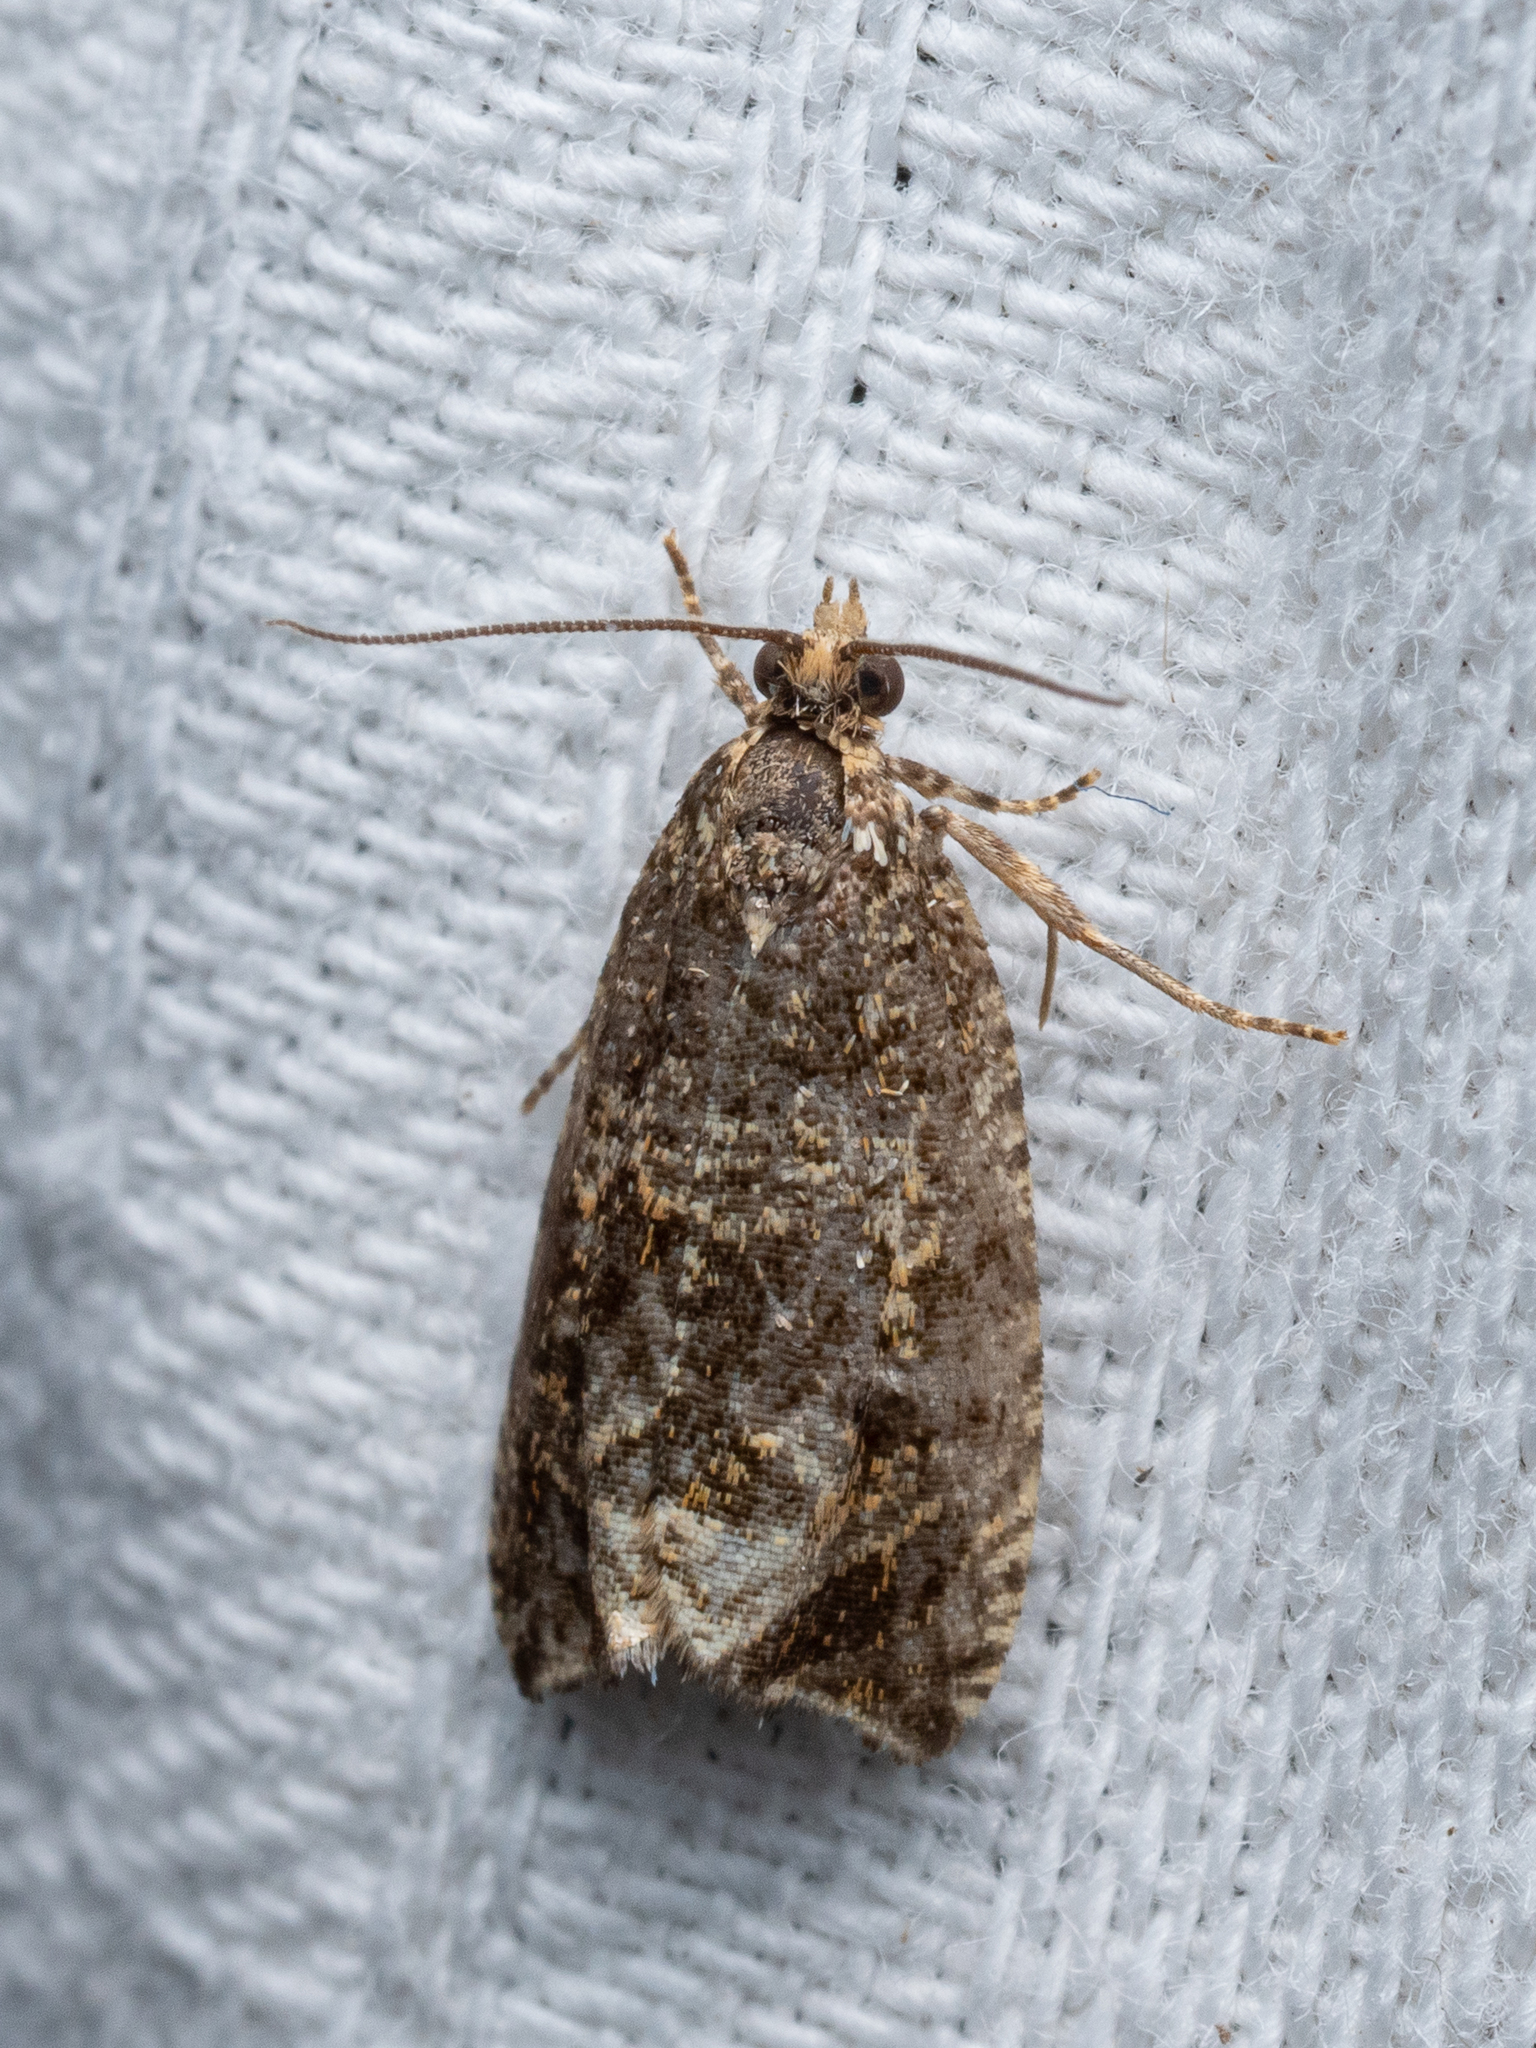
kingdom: Animalia
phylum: Arthropoda
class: Insecta
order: Lepidoptera
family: Tortricidae
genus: Syricoris
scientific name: Syricoris lacunana
